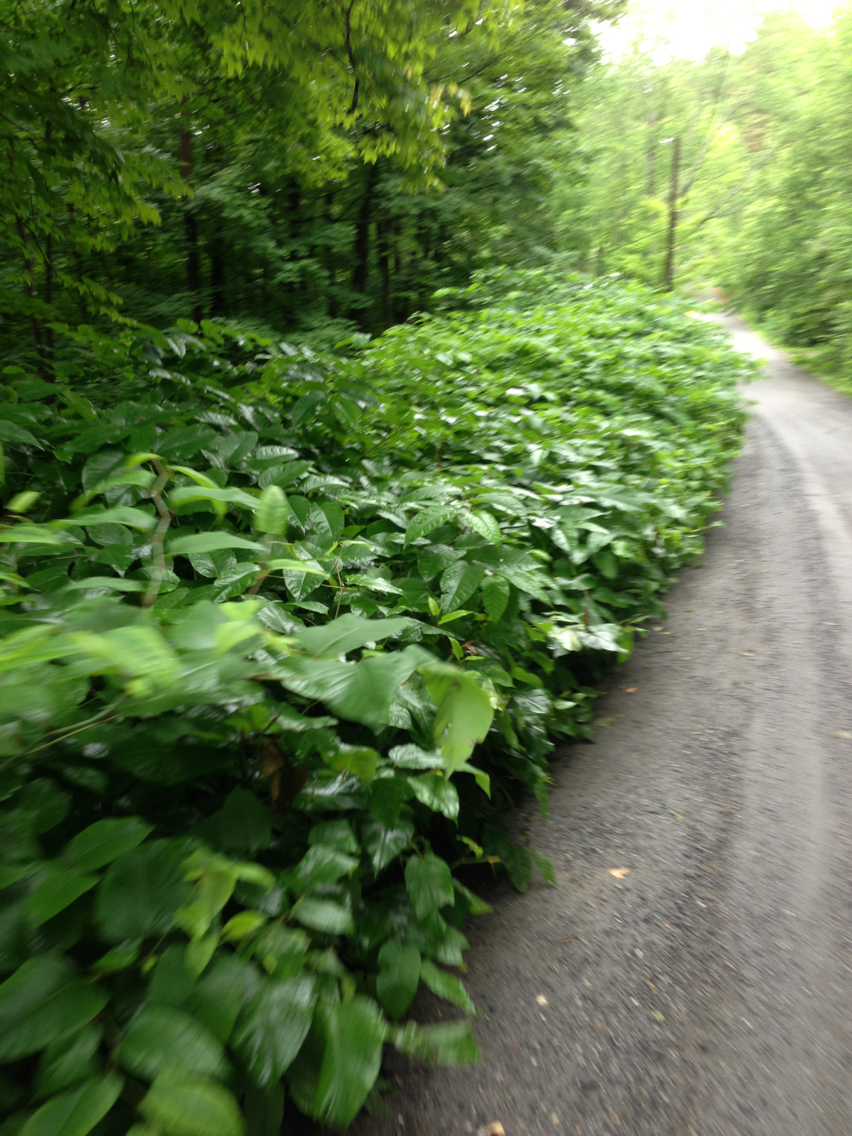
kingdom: Plantae
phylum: Tracheophyta
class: Magnoliopsida
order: Caryophyllales
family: Polygonaceae
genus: Reynoutria
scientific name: Reynoutria japonica
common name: Japanese knotweed
